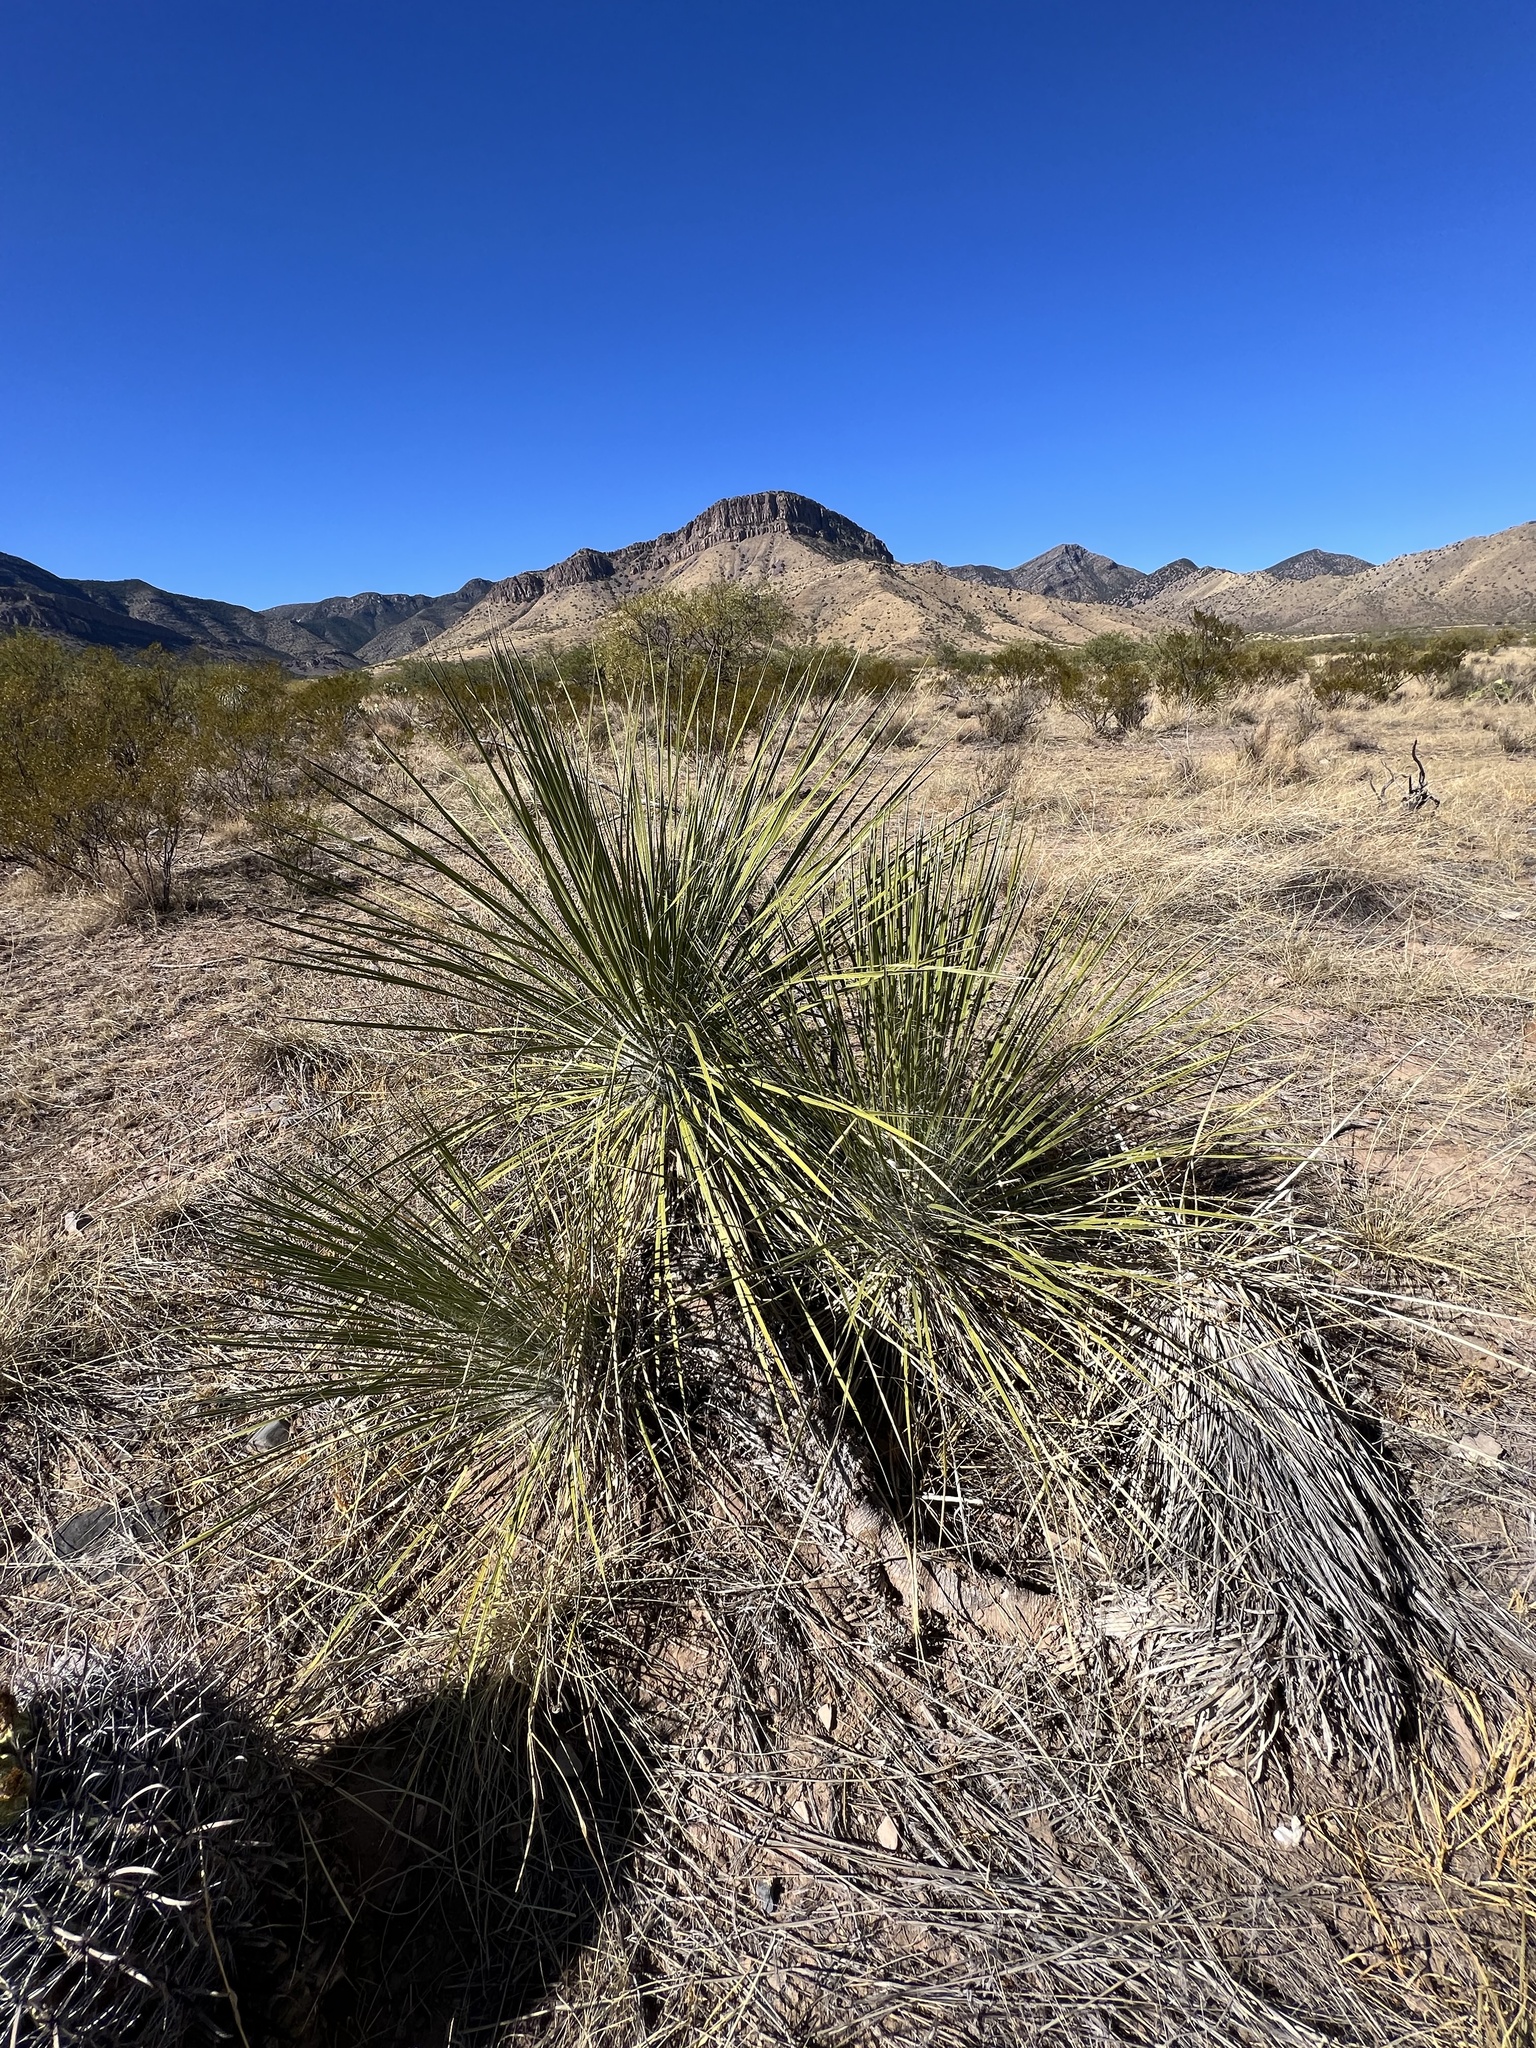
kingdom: Plantae
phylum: Tracheophyta
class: Liliopsida
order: Asparagales
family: Asparagaceae
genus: Yucca
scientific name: Yucca elata
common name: Palmella
